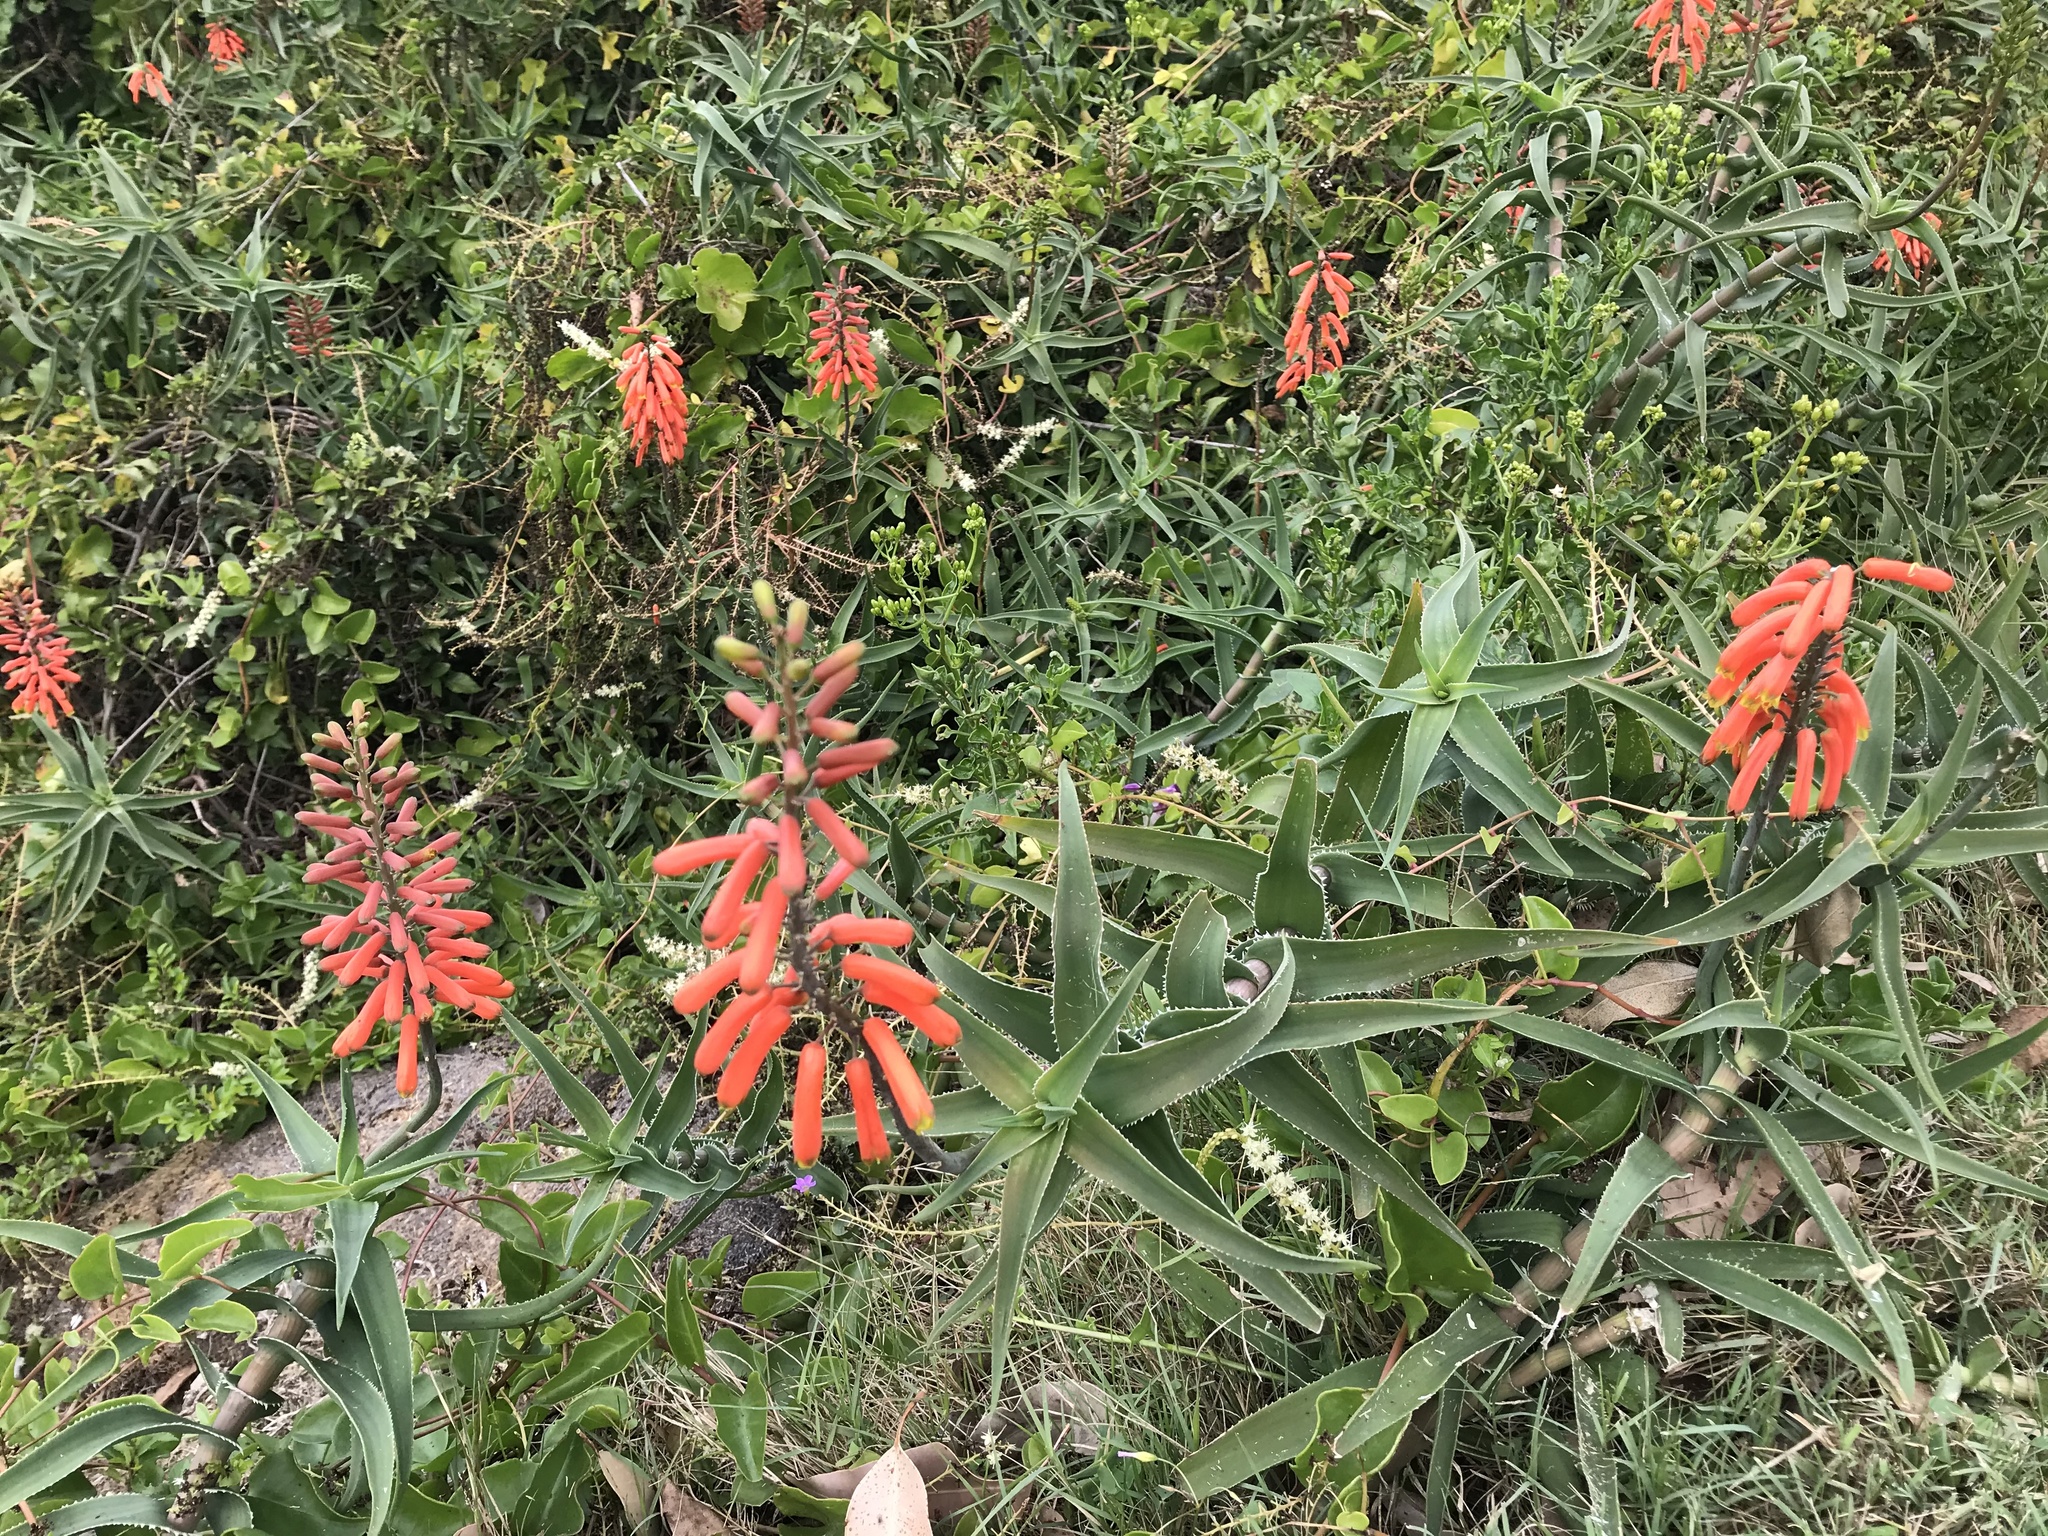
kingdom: Plantae
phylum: Tracheophyta
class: Liliopsida
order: Asparagales
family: Asphodelaceae
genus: Aloiampelos
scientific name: Aloiampelos ciliaris
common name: Climbing aloe
